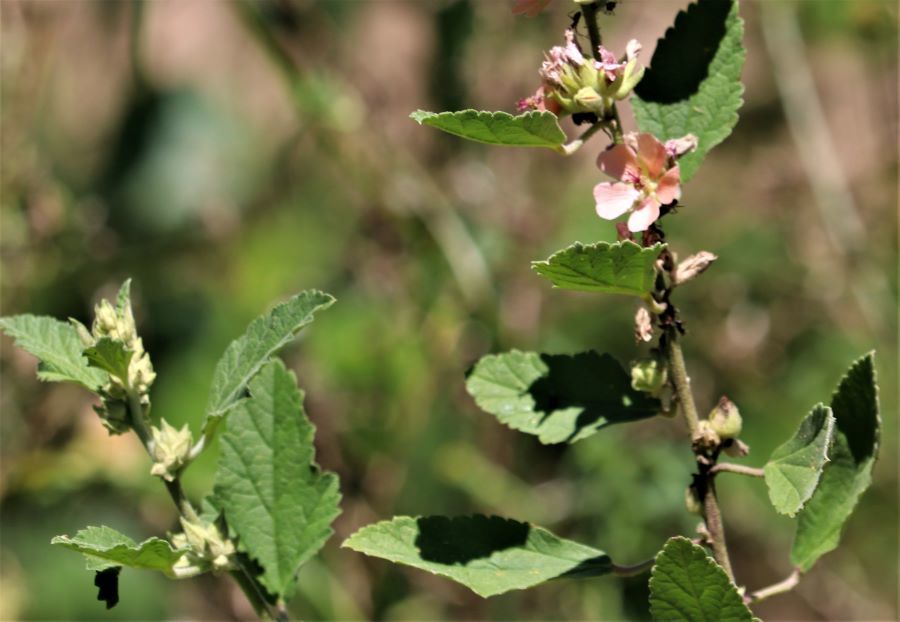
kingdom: Plantae
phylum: Tracheophyta
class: Magnoliopsida
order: Malvales
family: Malvaceae
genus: Sphaeralcea
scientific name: Sphaeralcea bonariensis
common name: Latin globemallow
